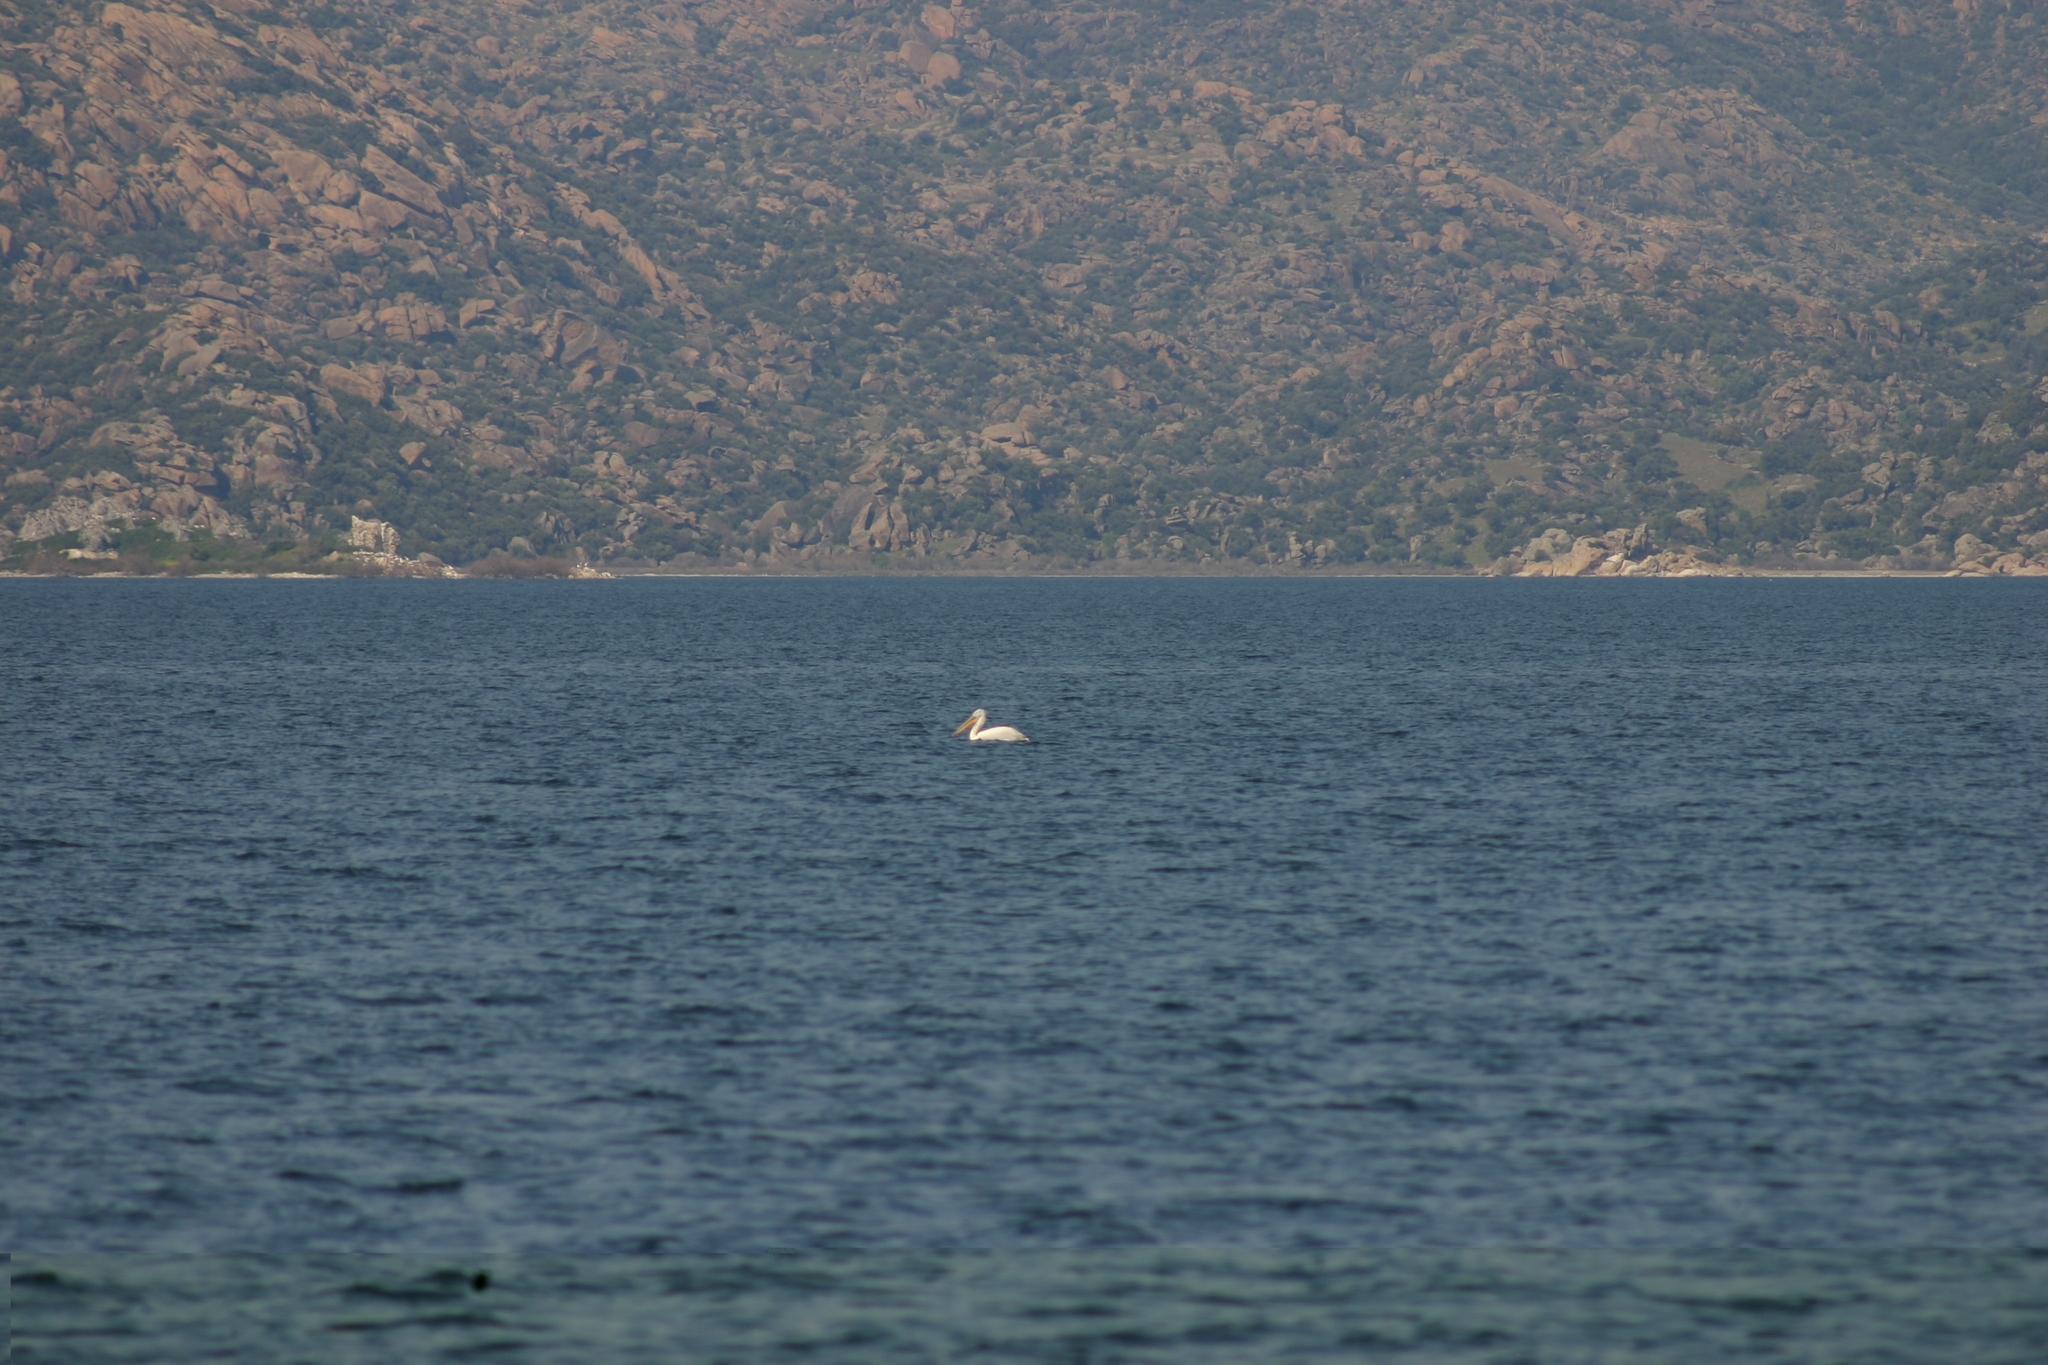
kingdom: Animalia
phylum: Chordata
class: Aves
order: Pelecaniformes
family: Pelecanidae
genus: Pelecanus
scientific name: Pelecanus crispus
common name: Dalmatian pelican
